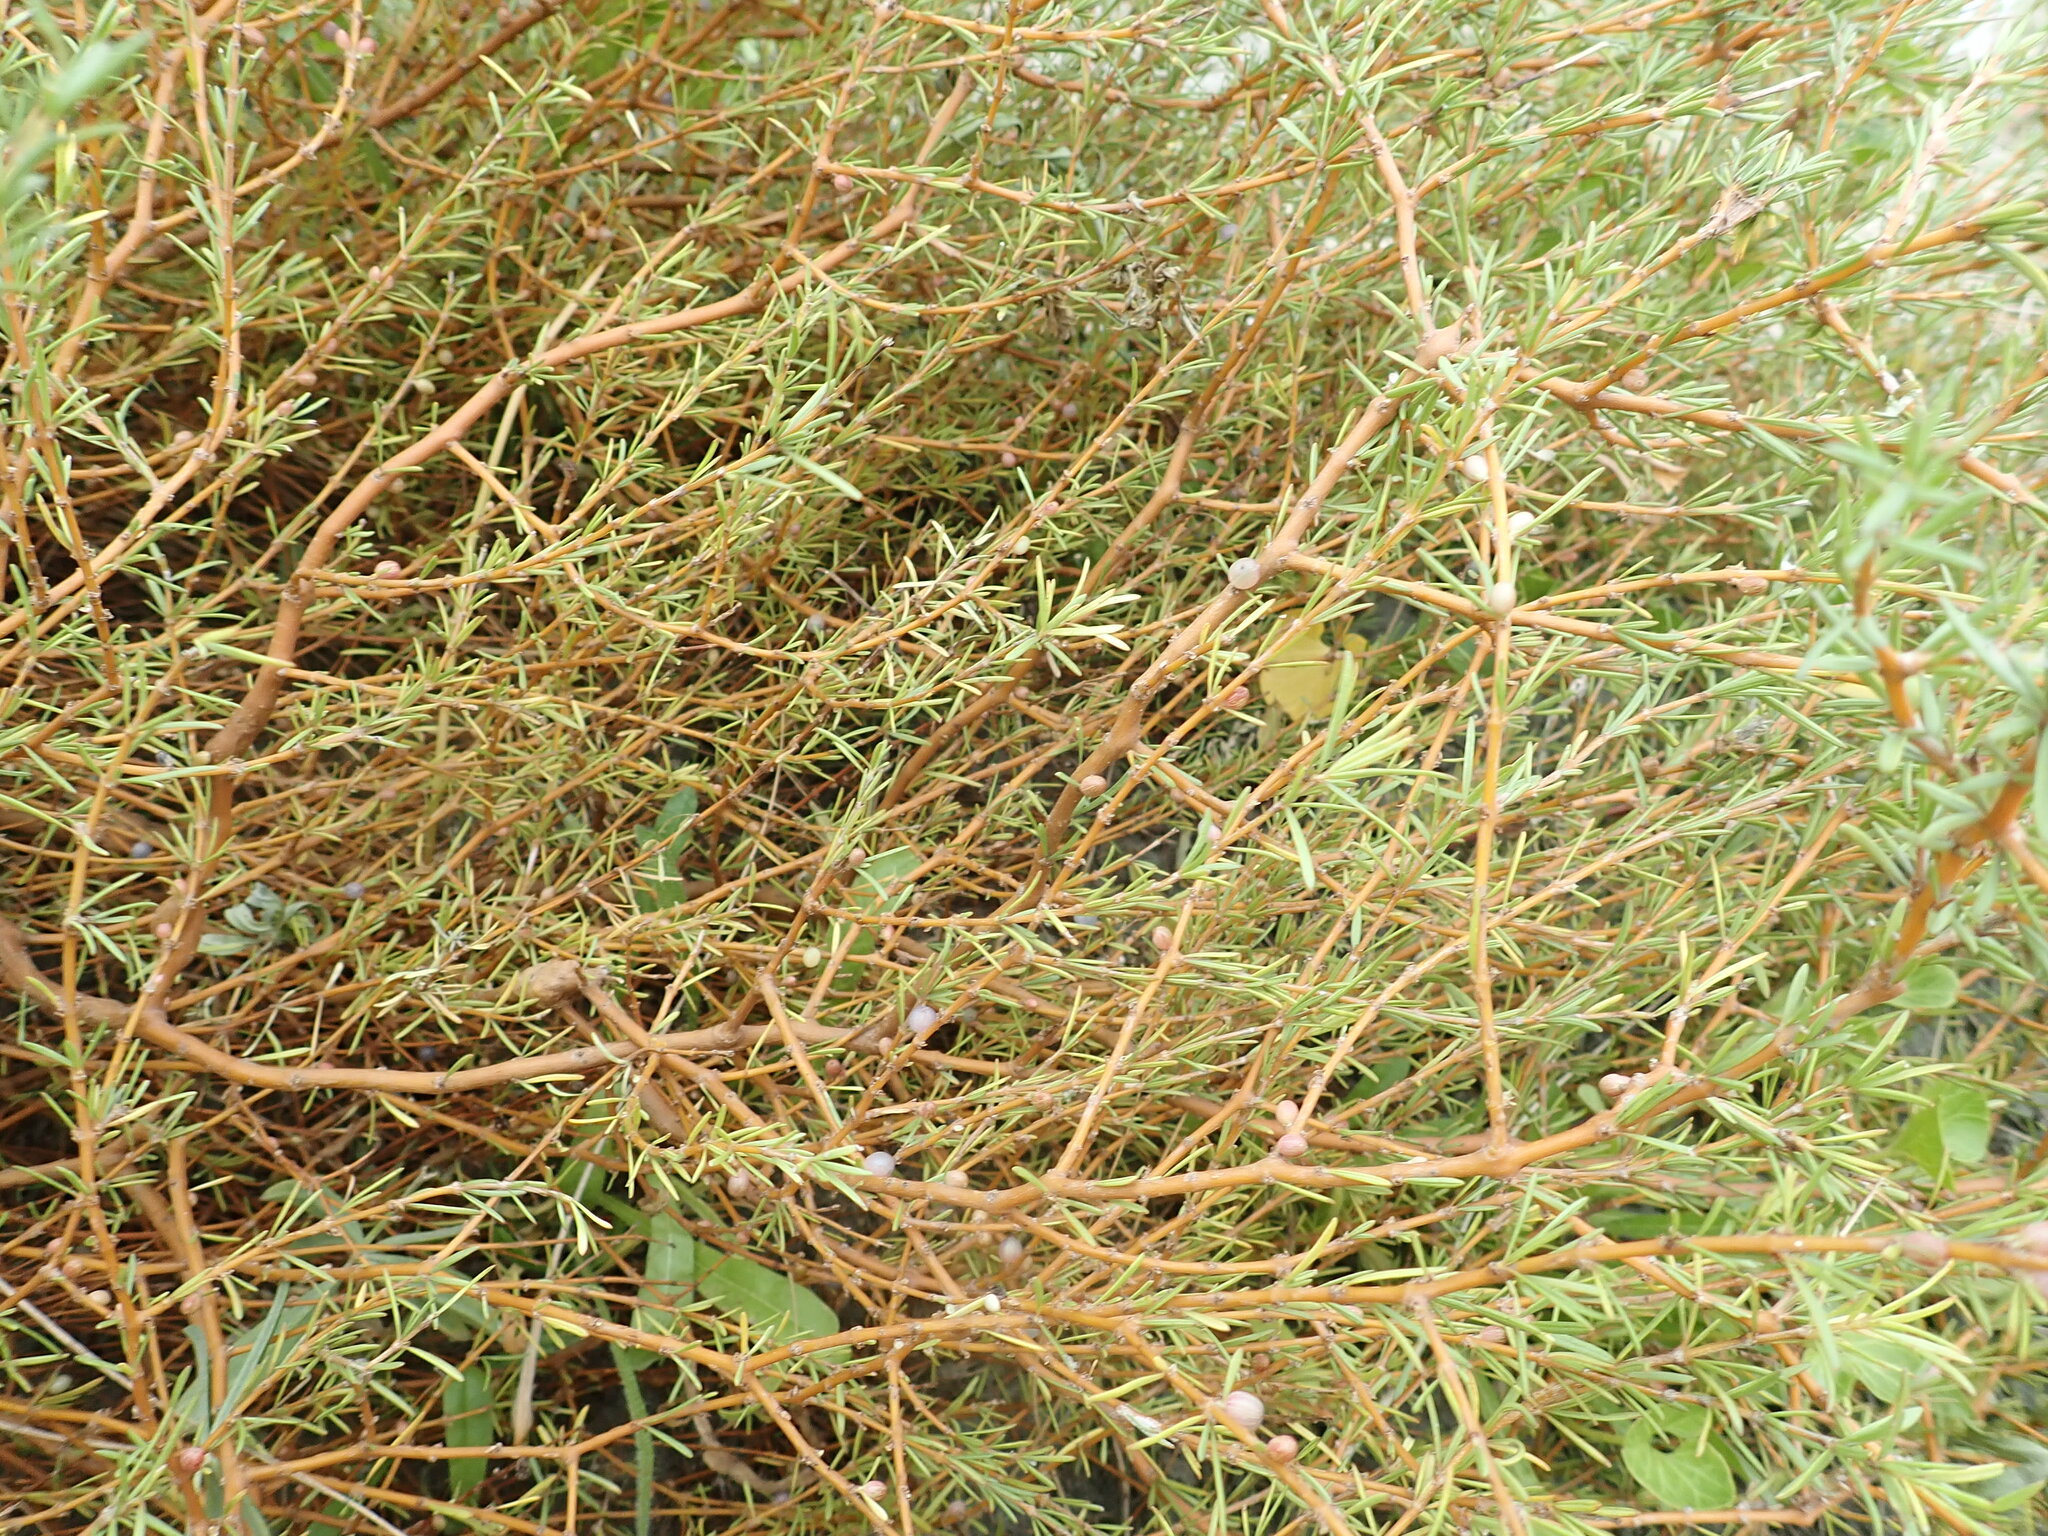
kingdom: Plantae
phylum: Tracheophyta
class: Magnoliopsida
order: Gentianales
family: Rubiaceae
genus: Coprosma
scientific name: Coprosma acerosa
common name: Sand coprosma
